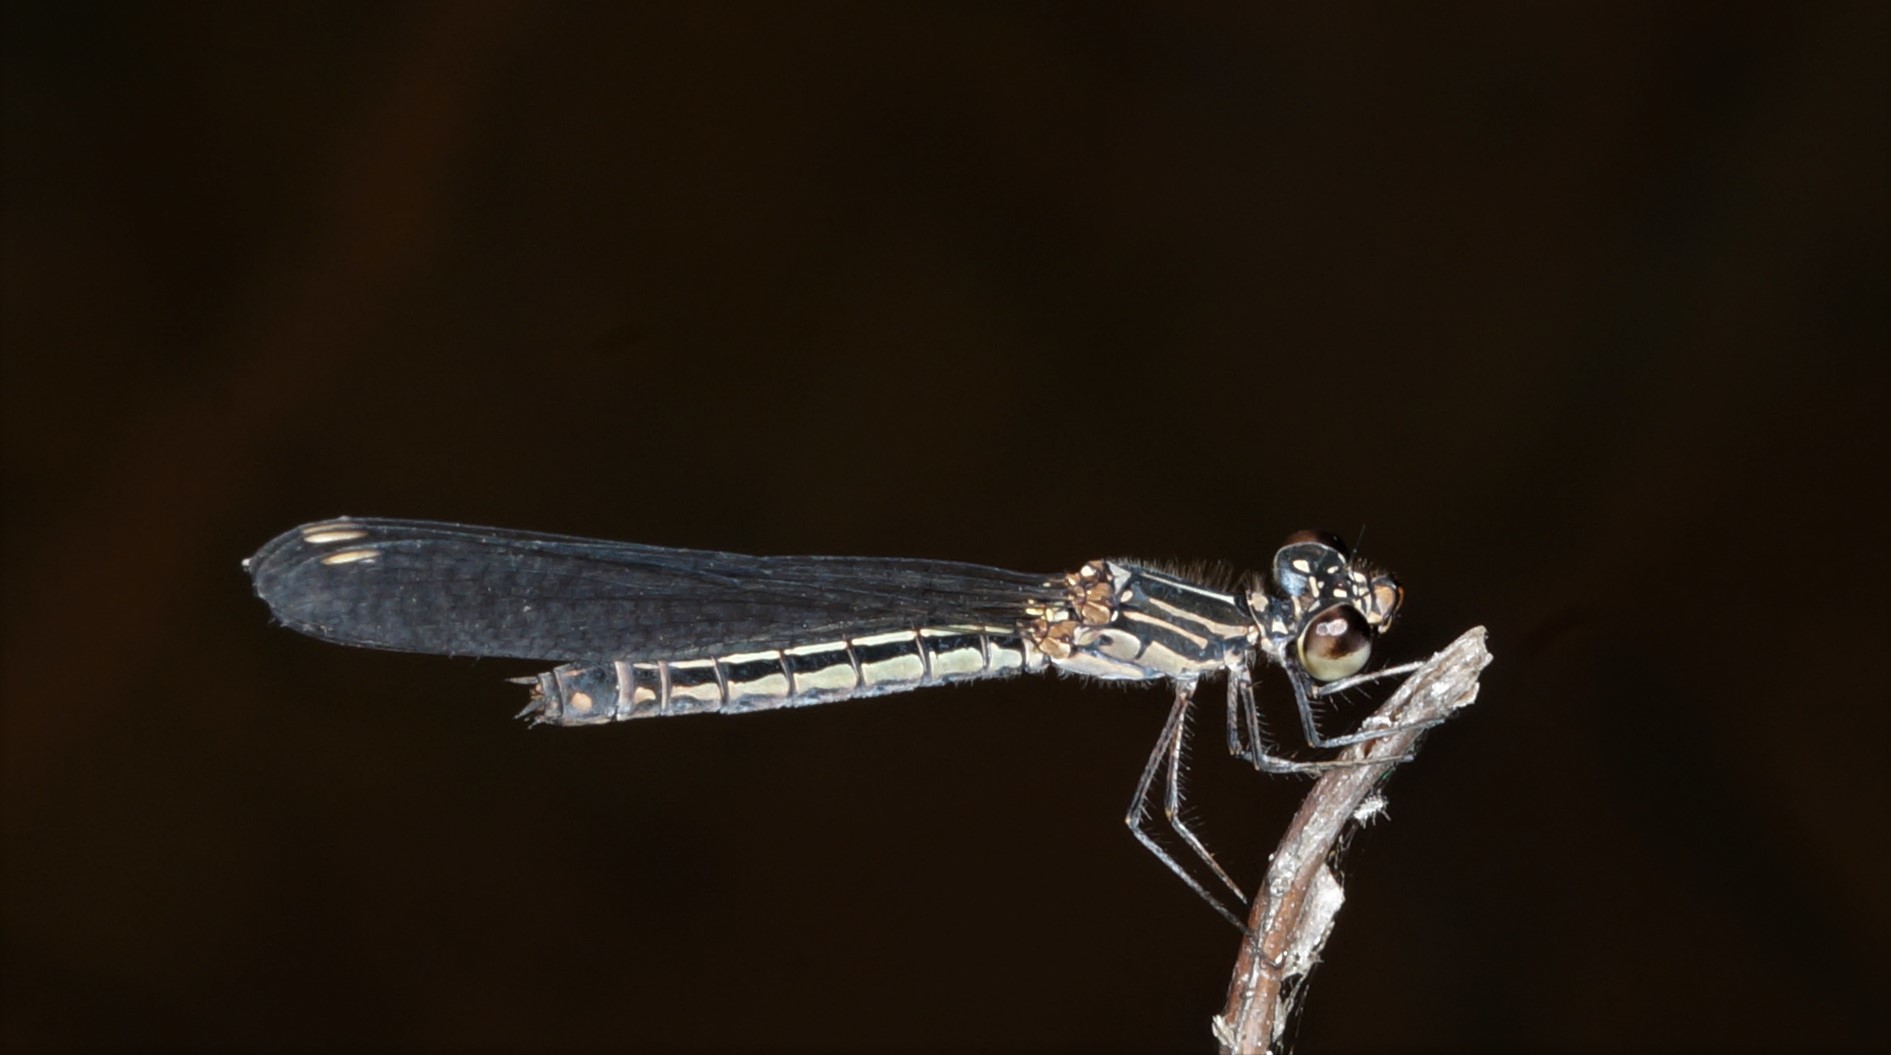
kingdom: Animalia
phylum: Arthropoda
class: Insecta
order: Odonata
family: Chlorocyphidae
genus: Libellago
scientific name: Libellago lineata
